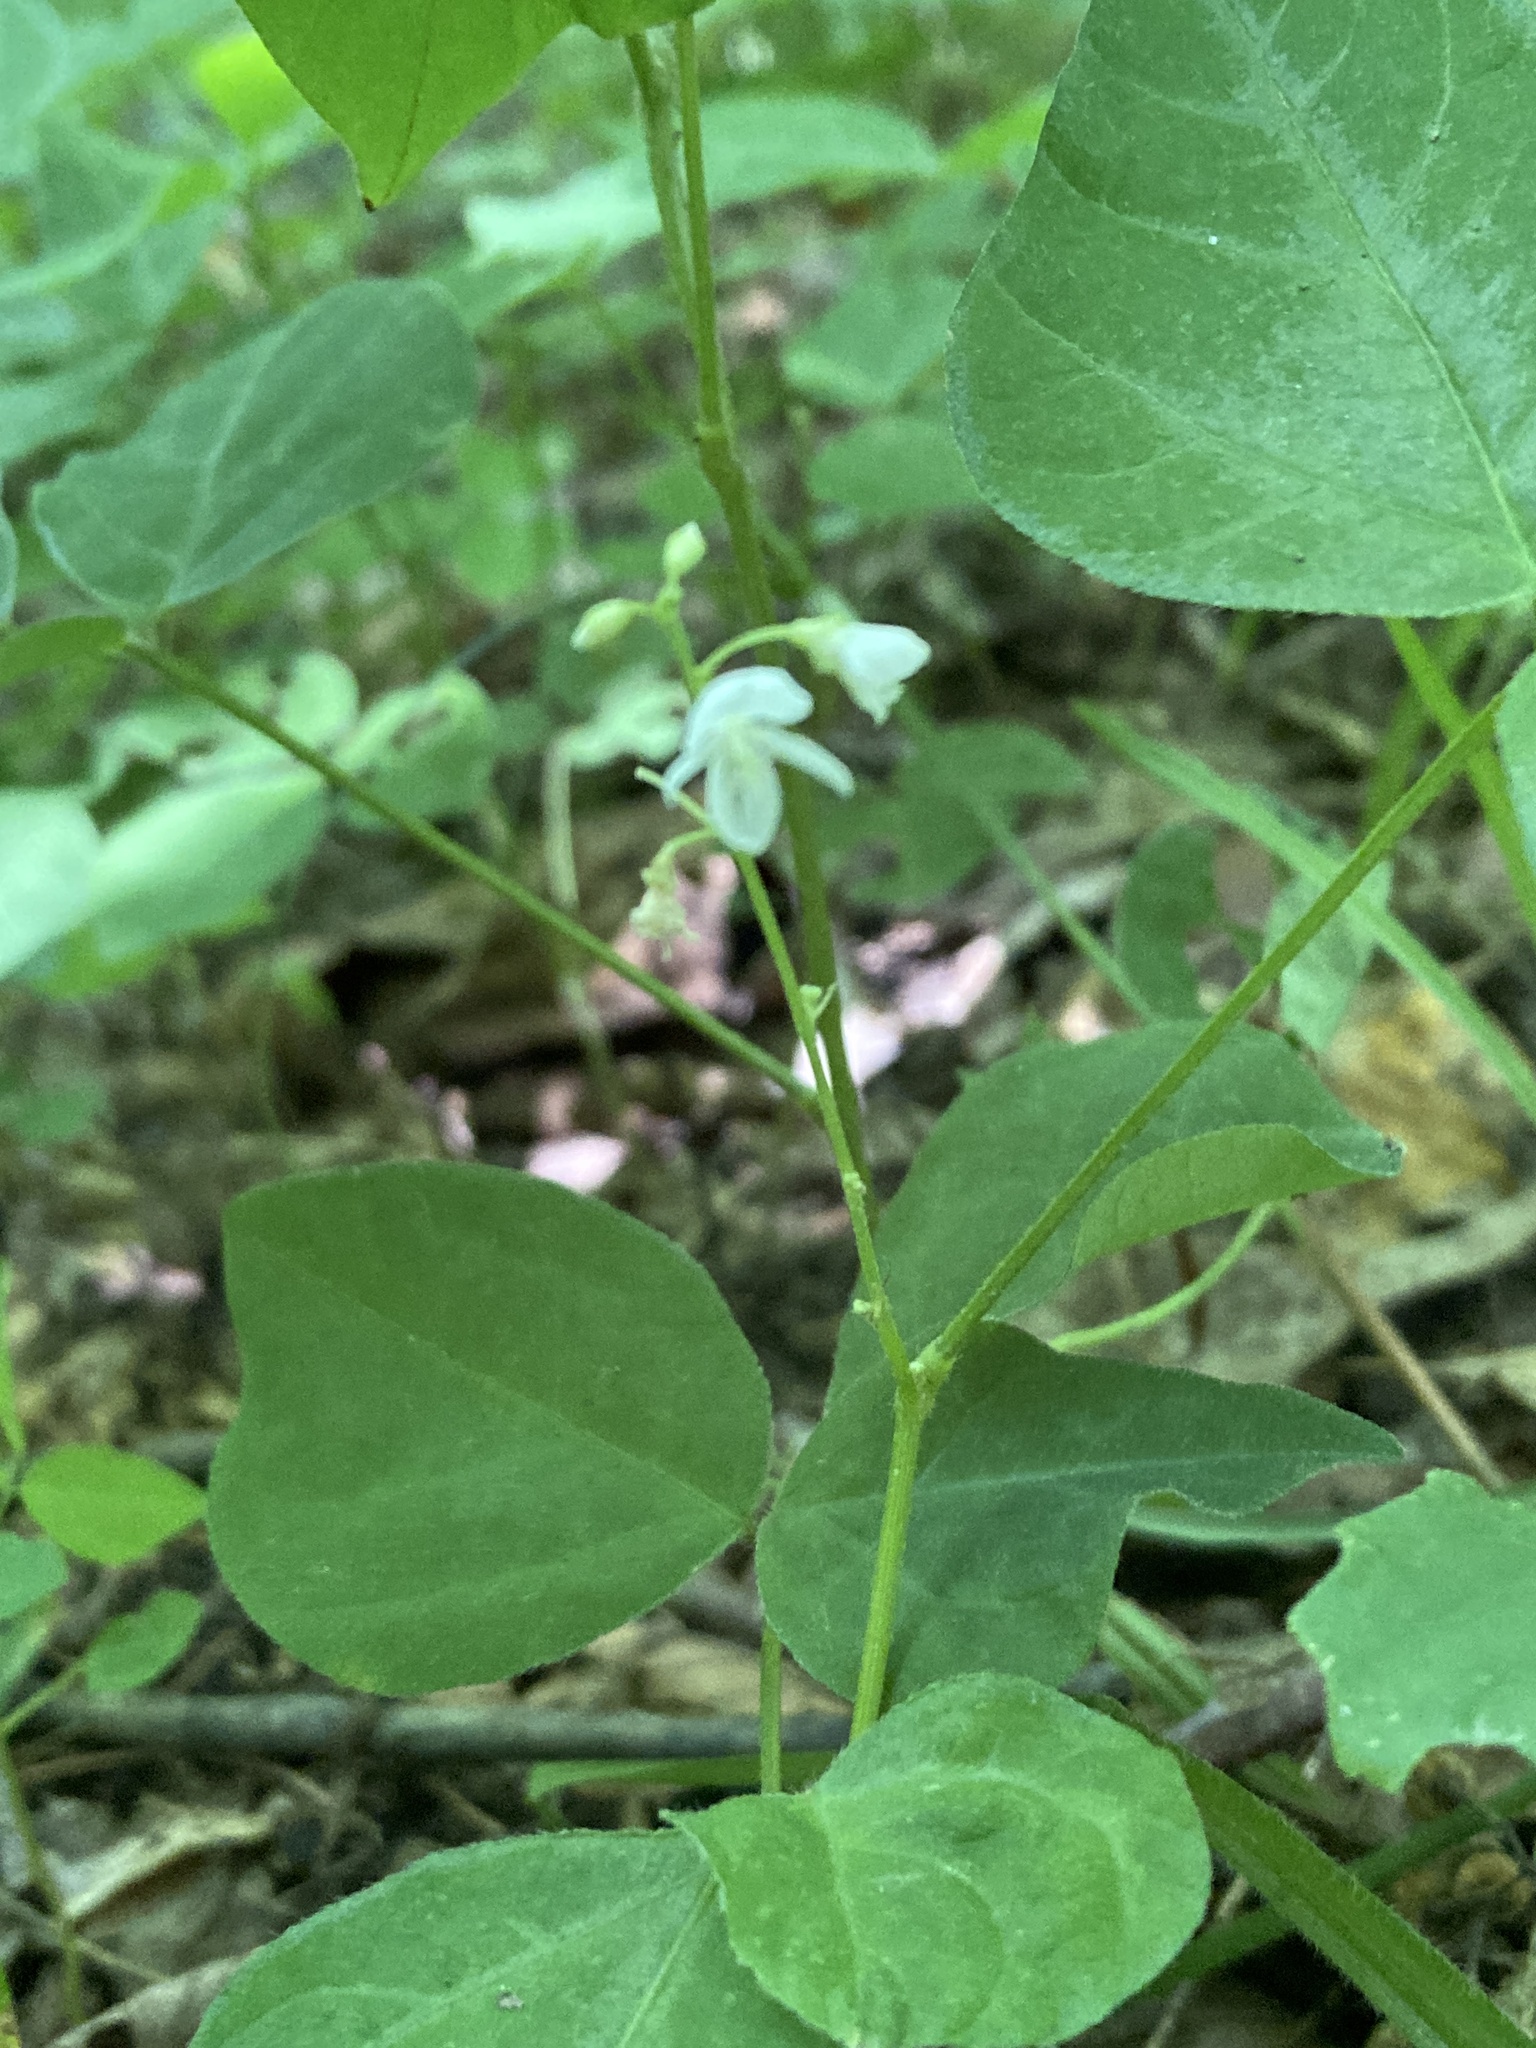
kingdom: Plantae
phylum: Tracheophyta
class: Magnoliopsida
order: Fabales
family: Fabaceae
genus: Hylodesmum
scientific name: Hylodesmum pauciflorum
